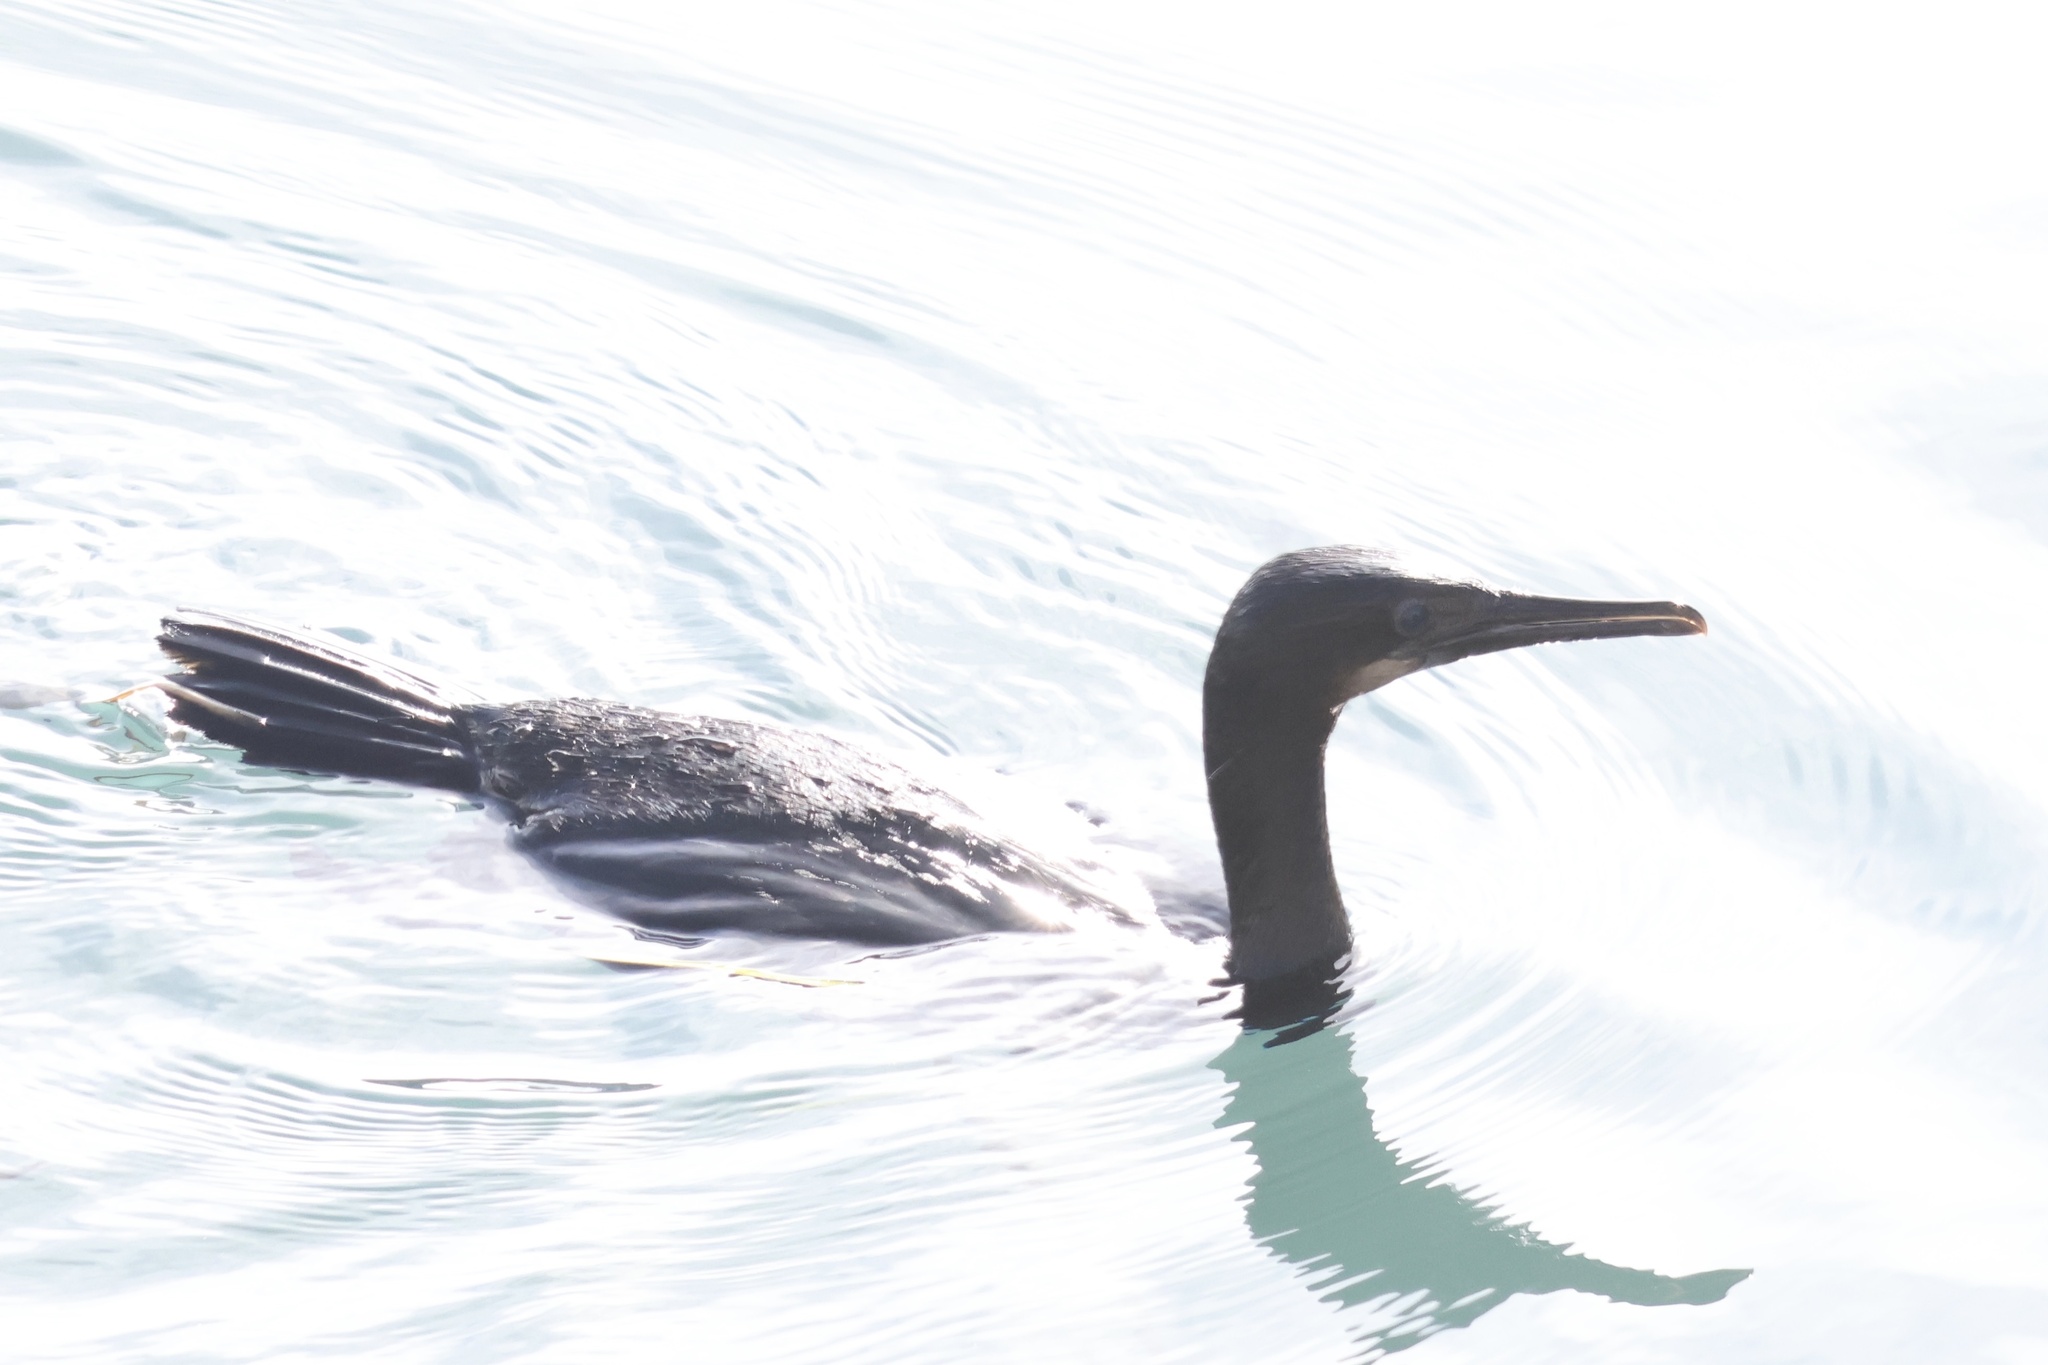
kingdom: Animalia
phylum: Chordata
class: Aves
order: Suliformes
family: Phalacrocoracidae
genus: Urile
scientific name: Urile penicillatus
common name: Brandt's cormorant
